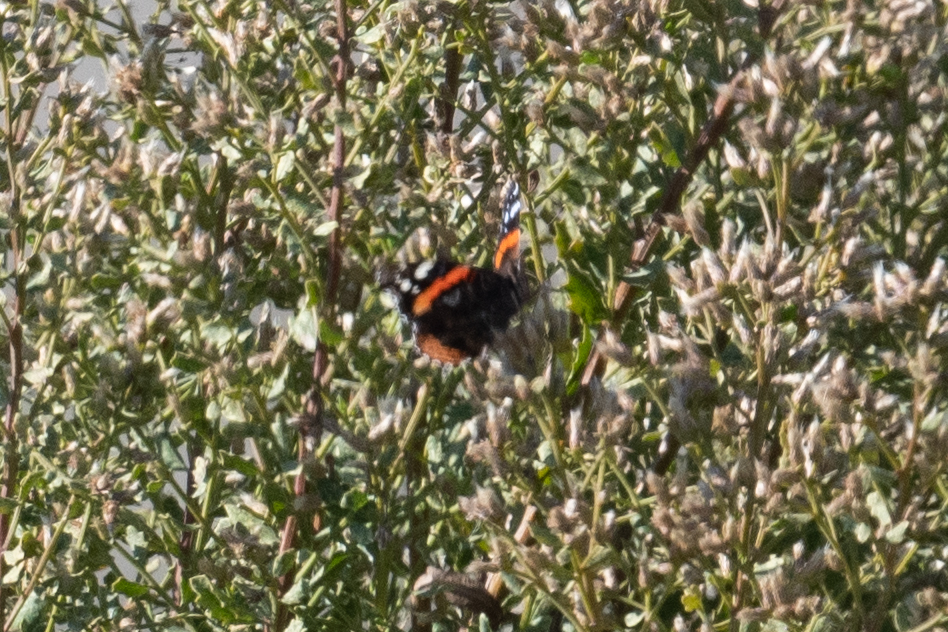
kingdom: Animalia
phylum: Arthropoda
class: Insecta
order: Lepidoptera
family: Nymphalidae
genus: Vanessa
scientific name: Vanessa atalanta
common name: Red admiral
